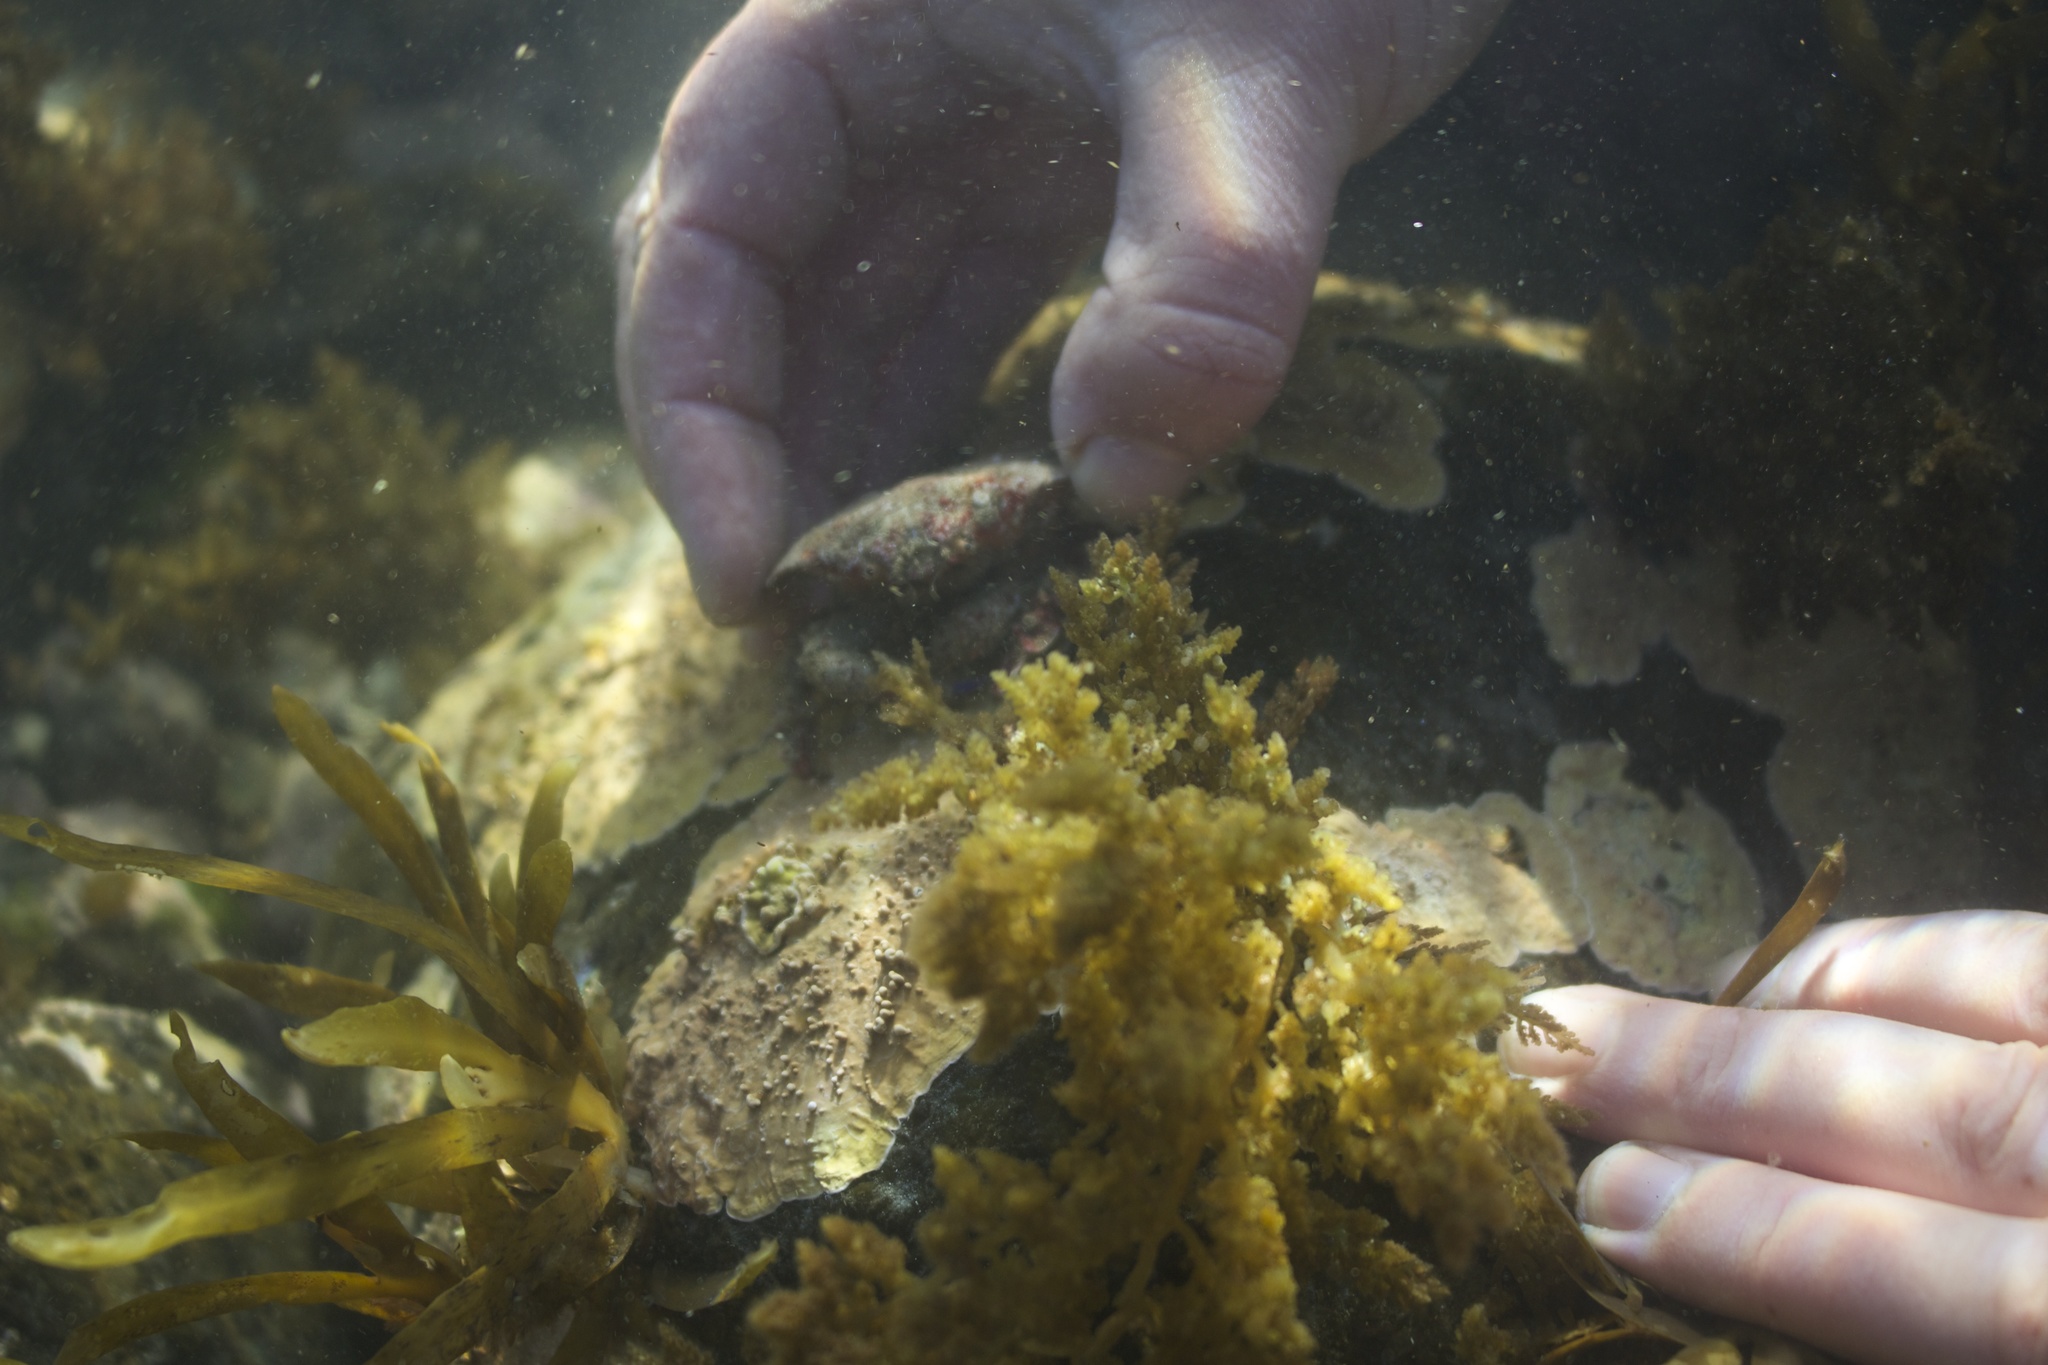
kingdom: Animalia
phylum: Arthropoda
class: Malacostraca
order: Decapoda
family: Majidae
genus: Eurynolambrus
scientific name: Eurynolambrus australis
